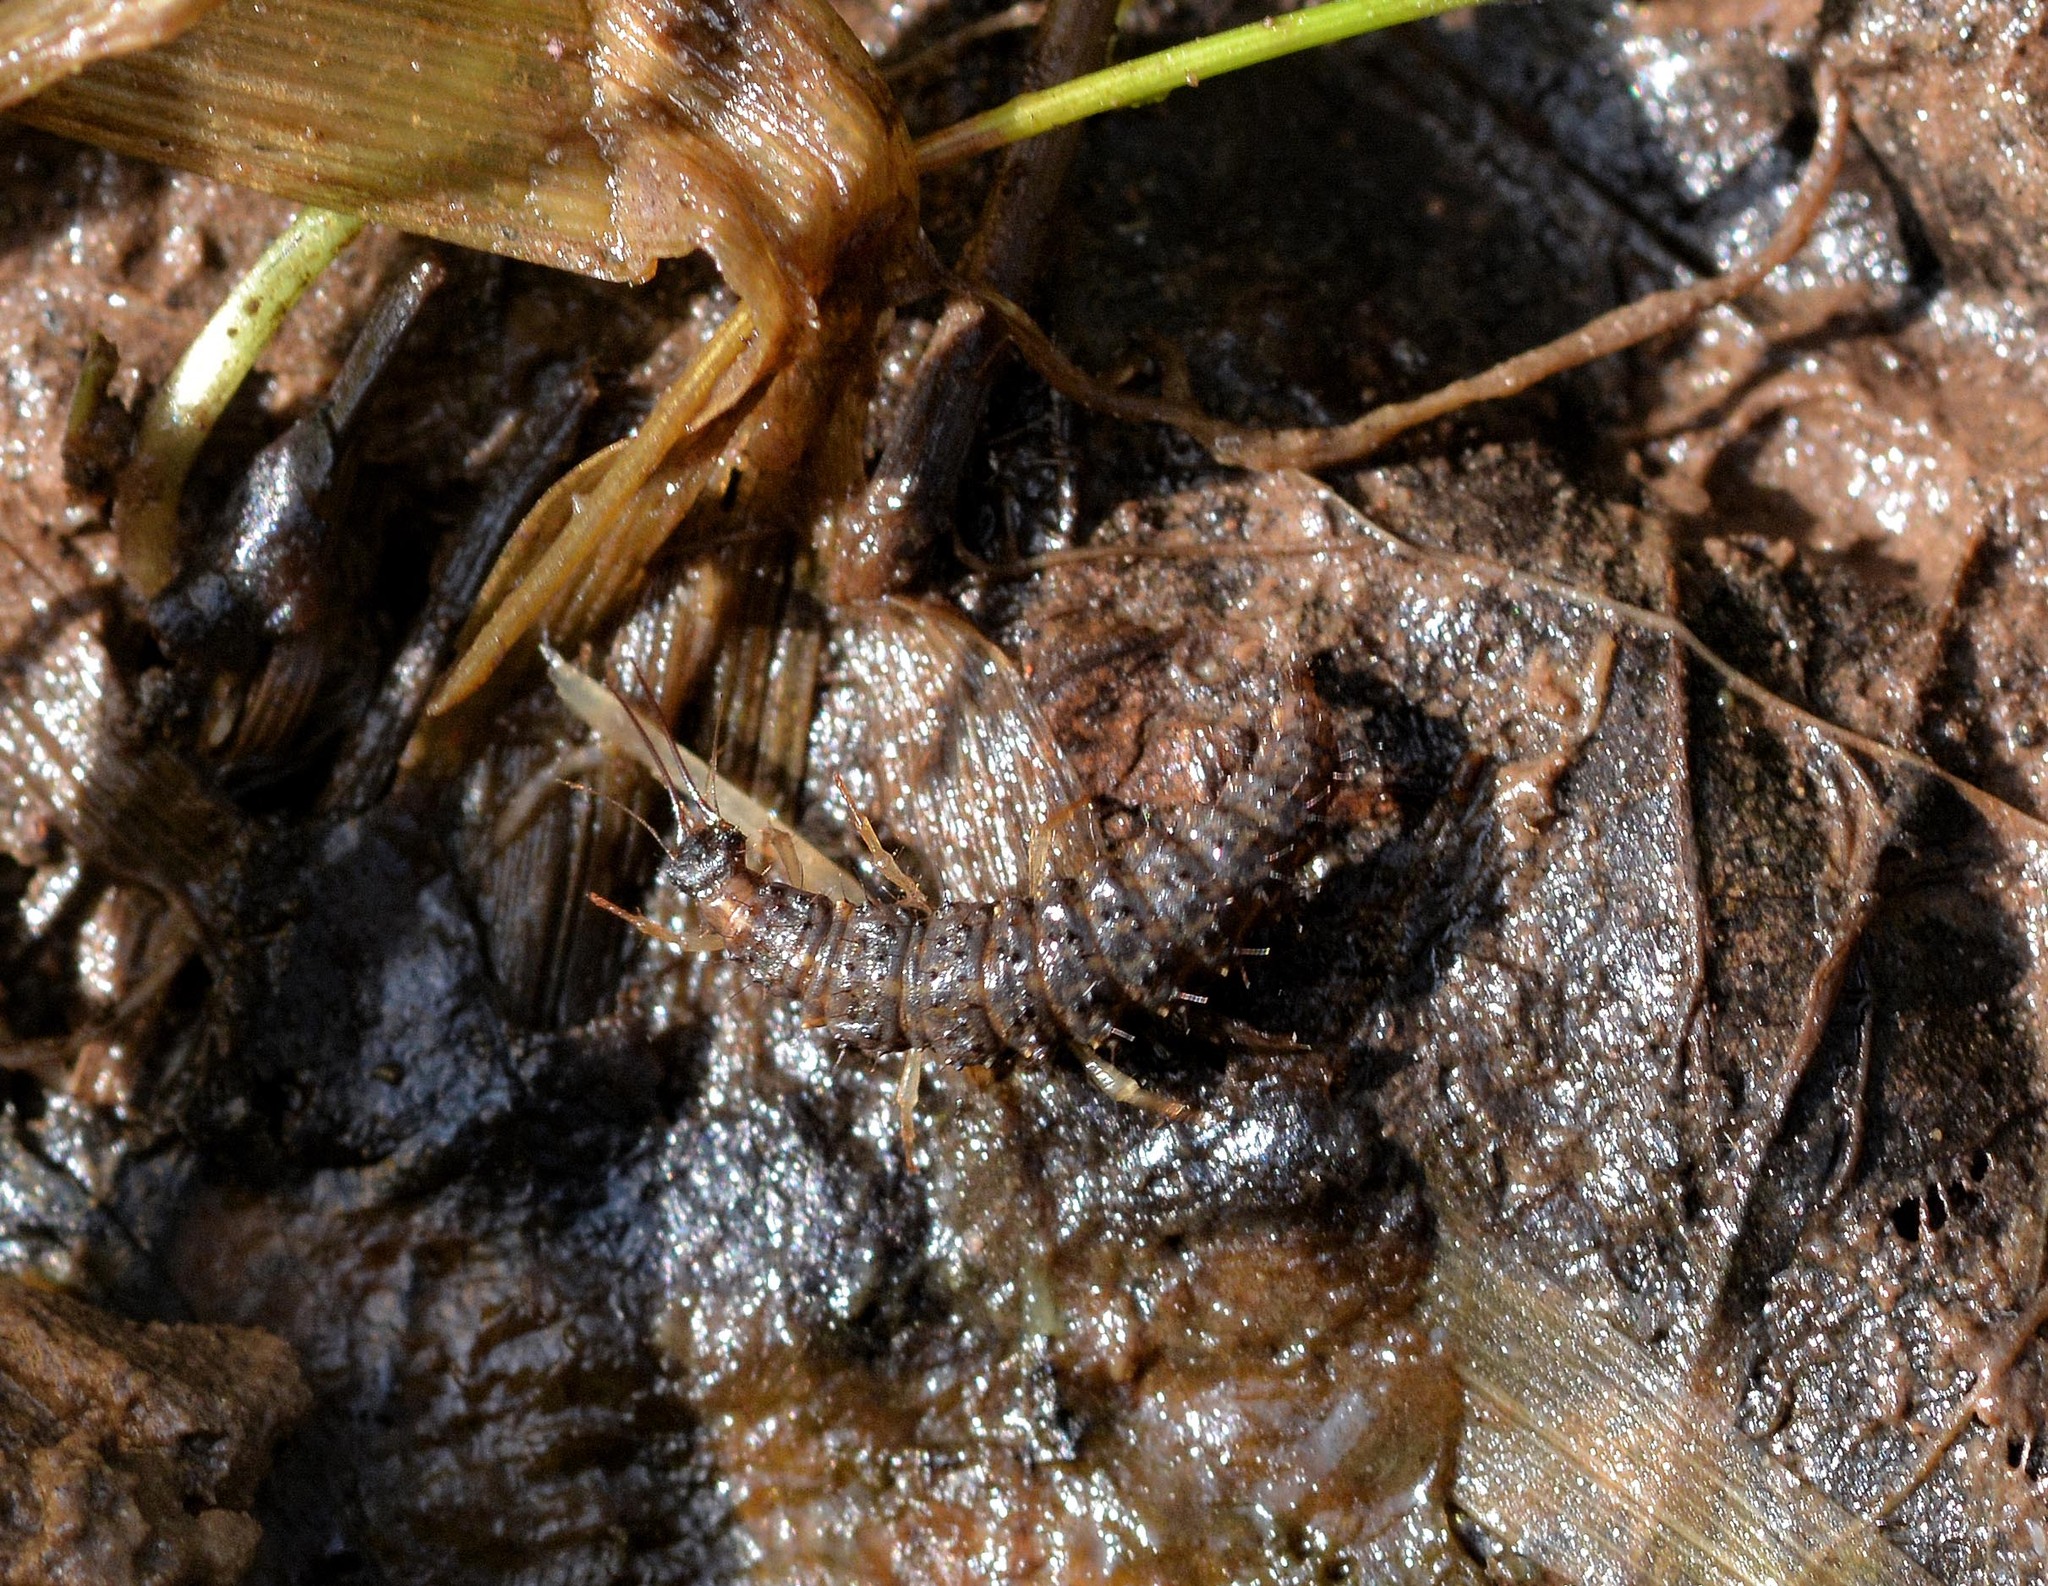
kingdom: Animalia
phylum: Arthropoda
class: Insecta
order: Neuroptera
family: Osmylidae
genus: Osmylus
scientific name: Osmylus fulvicephalus
